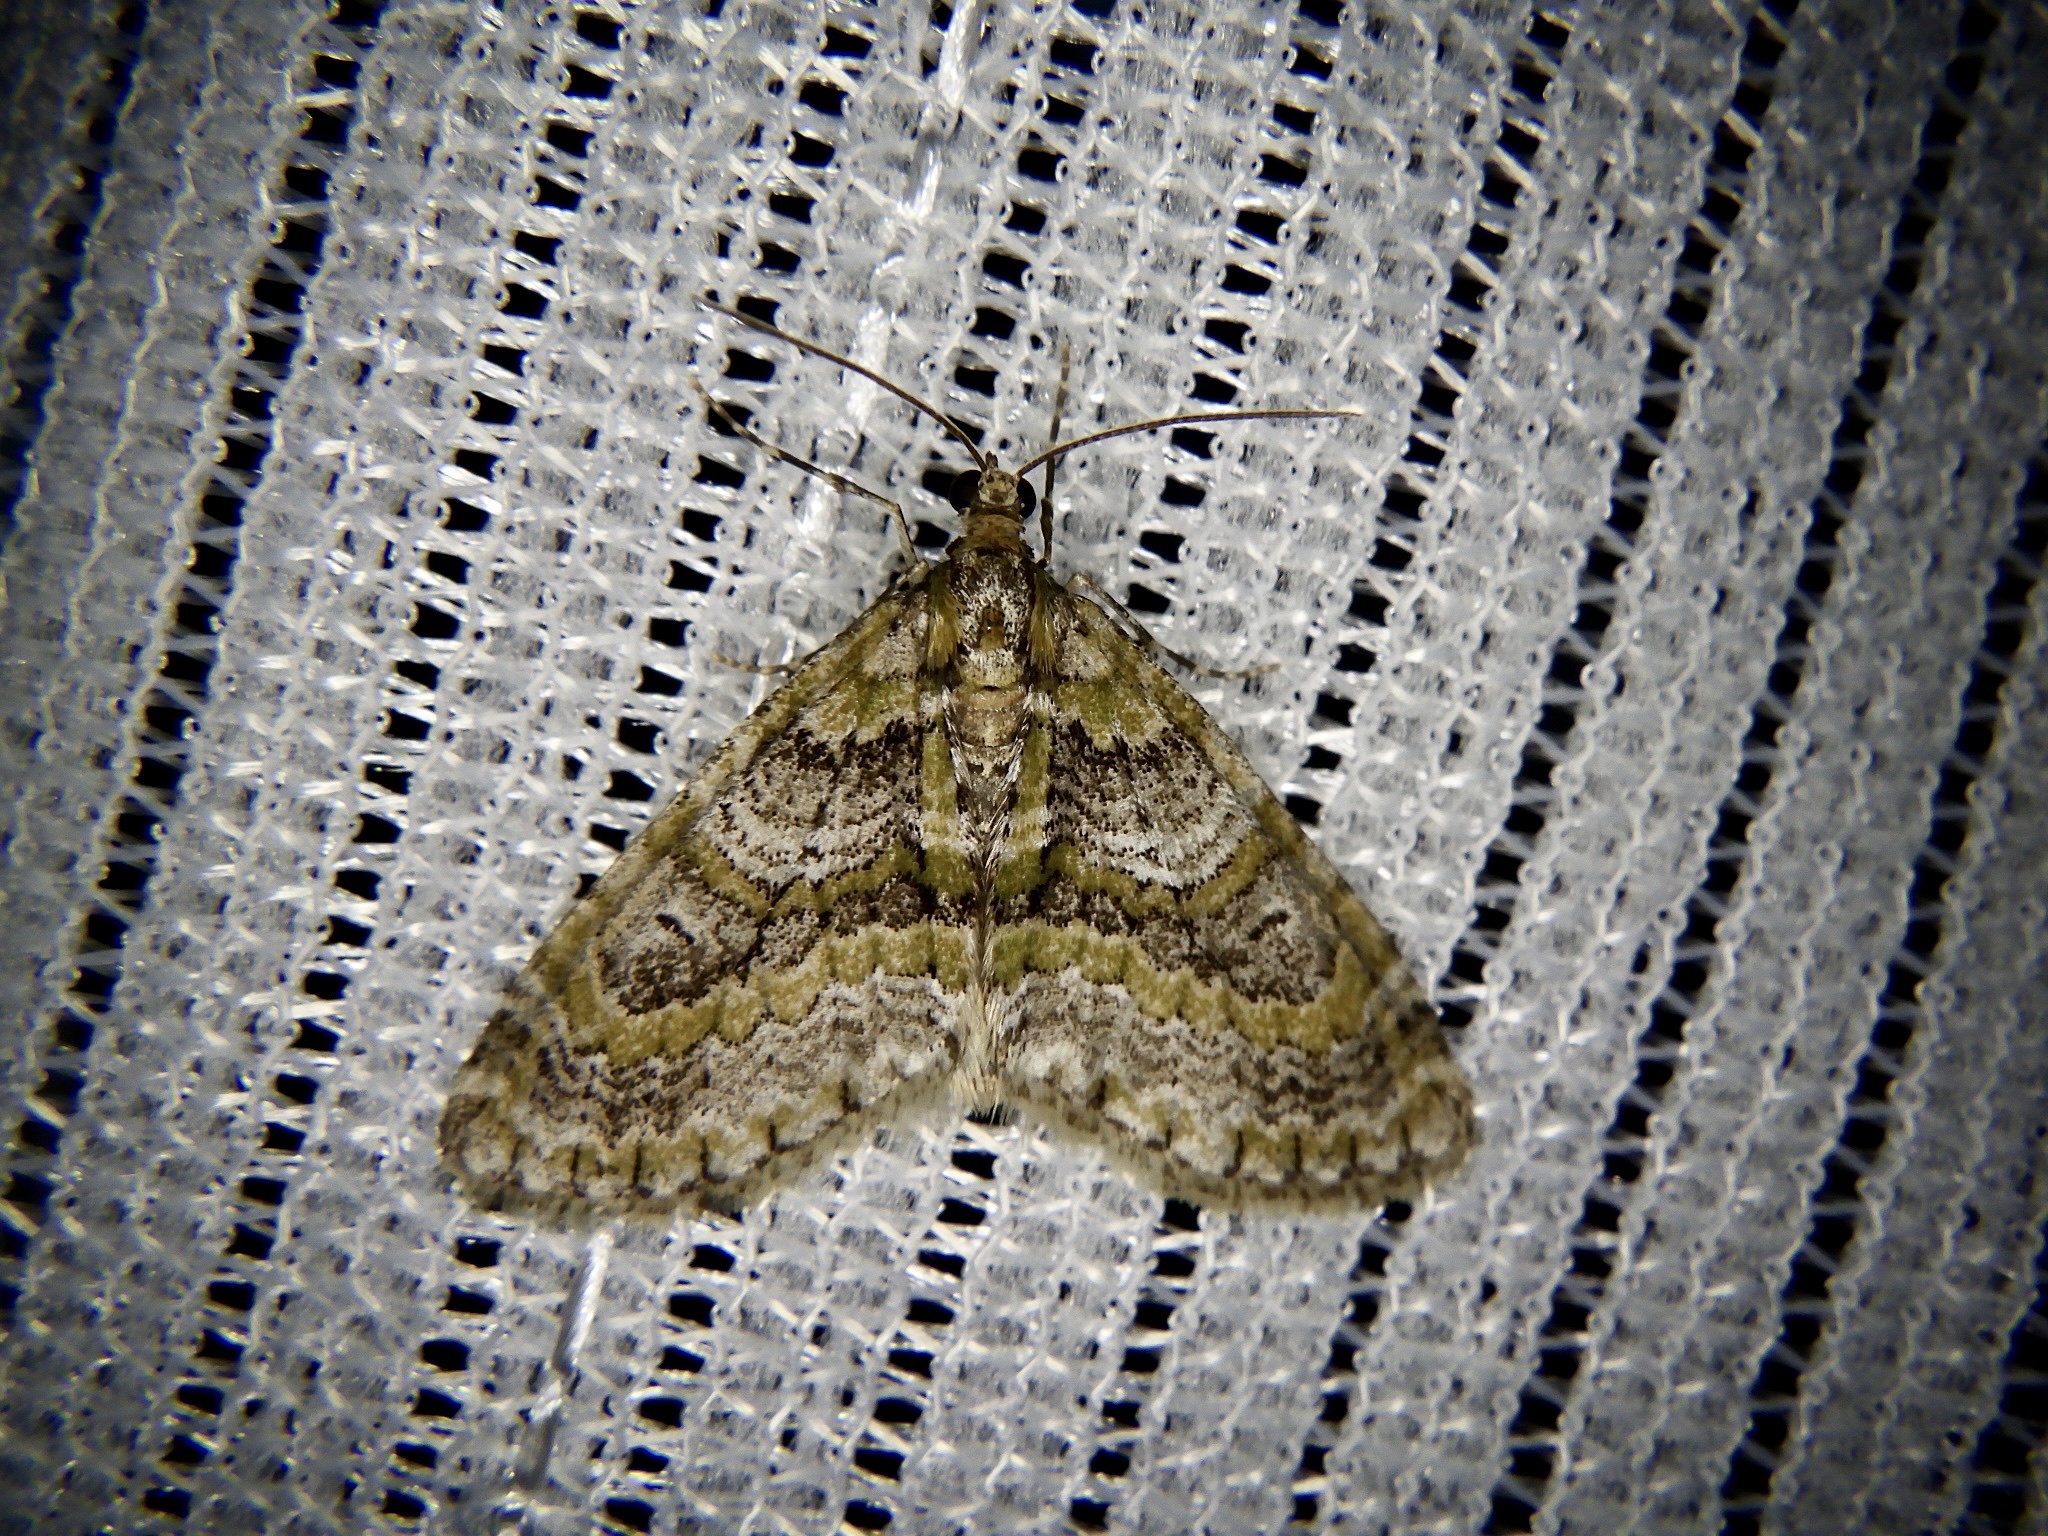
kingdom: Animalia
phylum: Arthropoda
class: Insecta
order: Lepidoptera
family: Geometridae
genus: Esakiopteryx
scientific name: Esakiopteryx volitans
